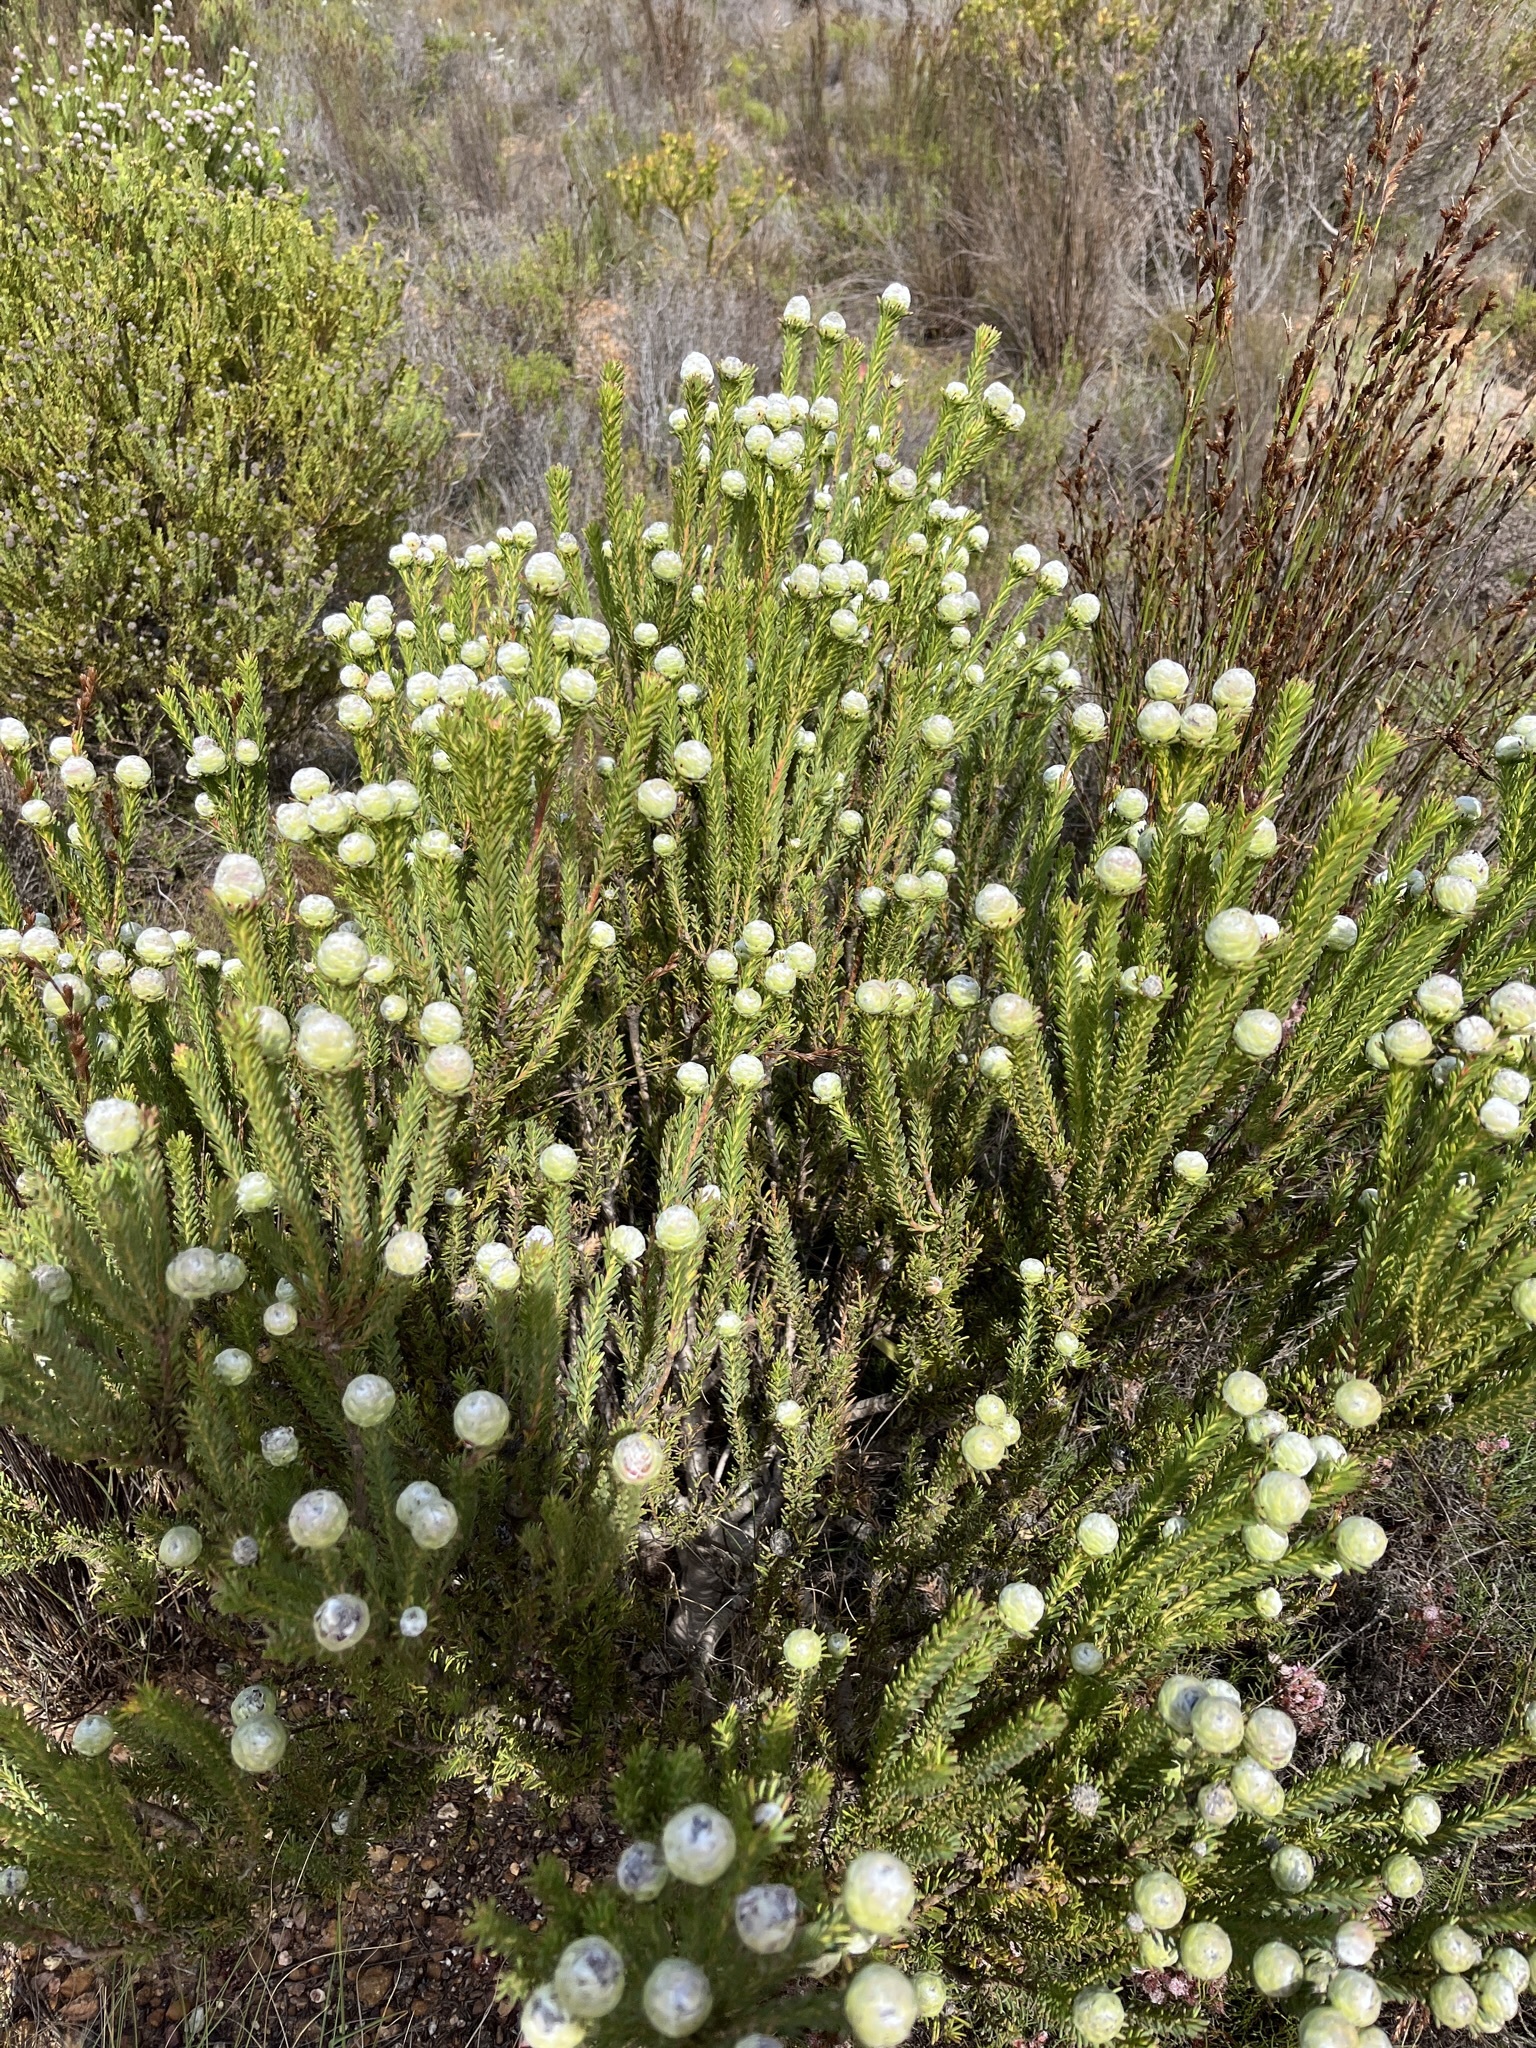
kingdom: Plantae
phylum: Tracheophyta
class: Magnoliopsida
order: Proteales
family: Proteaceae
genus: Leucadendron
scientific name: Leucadendron linifolium
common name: Line-leaf conebush
